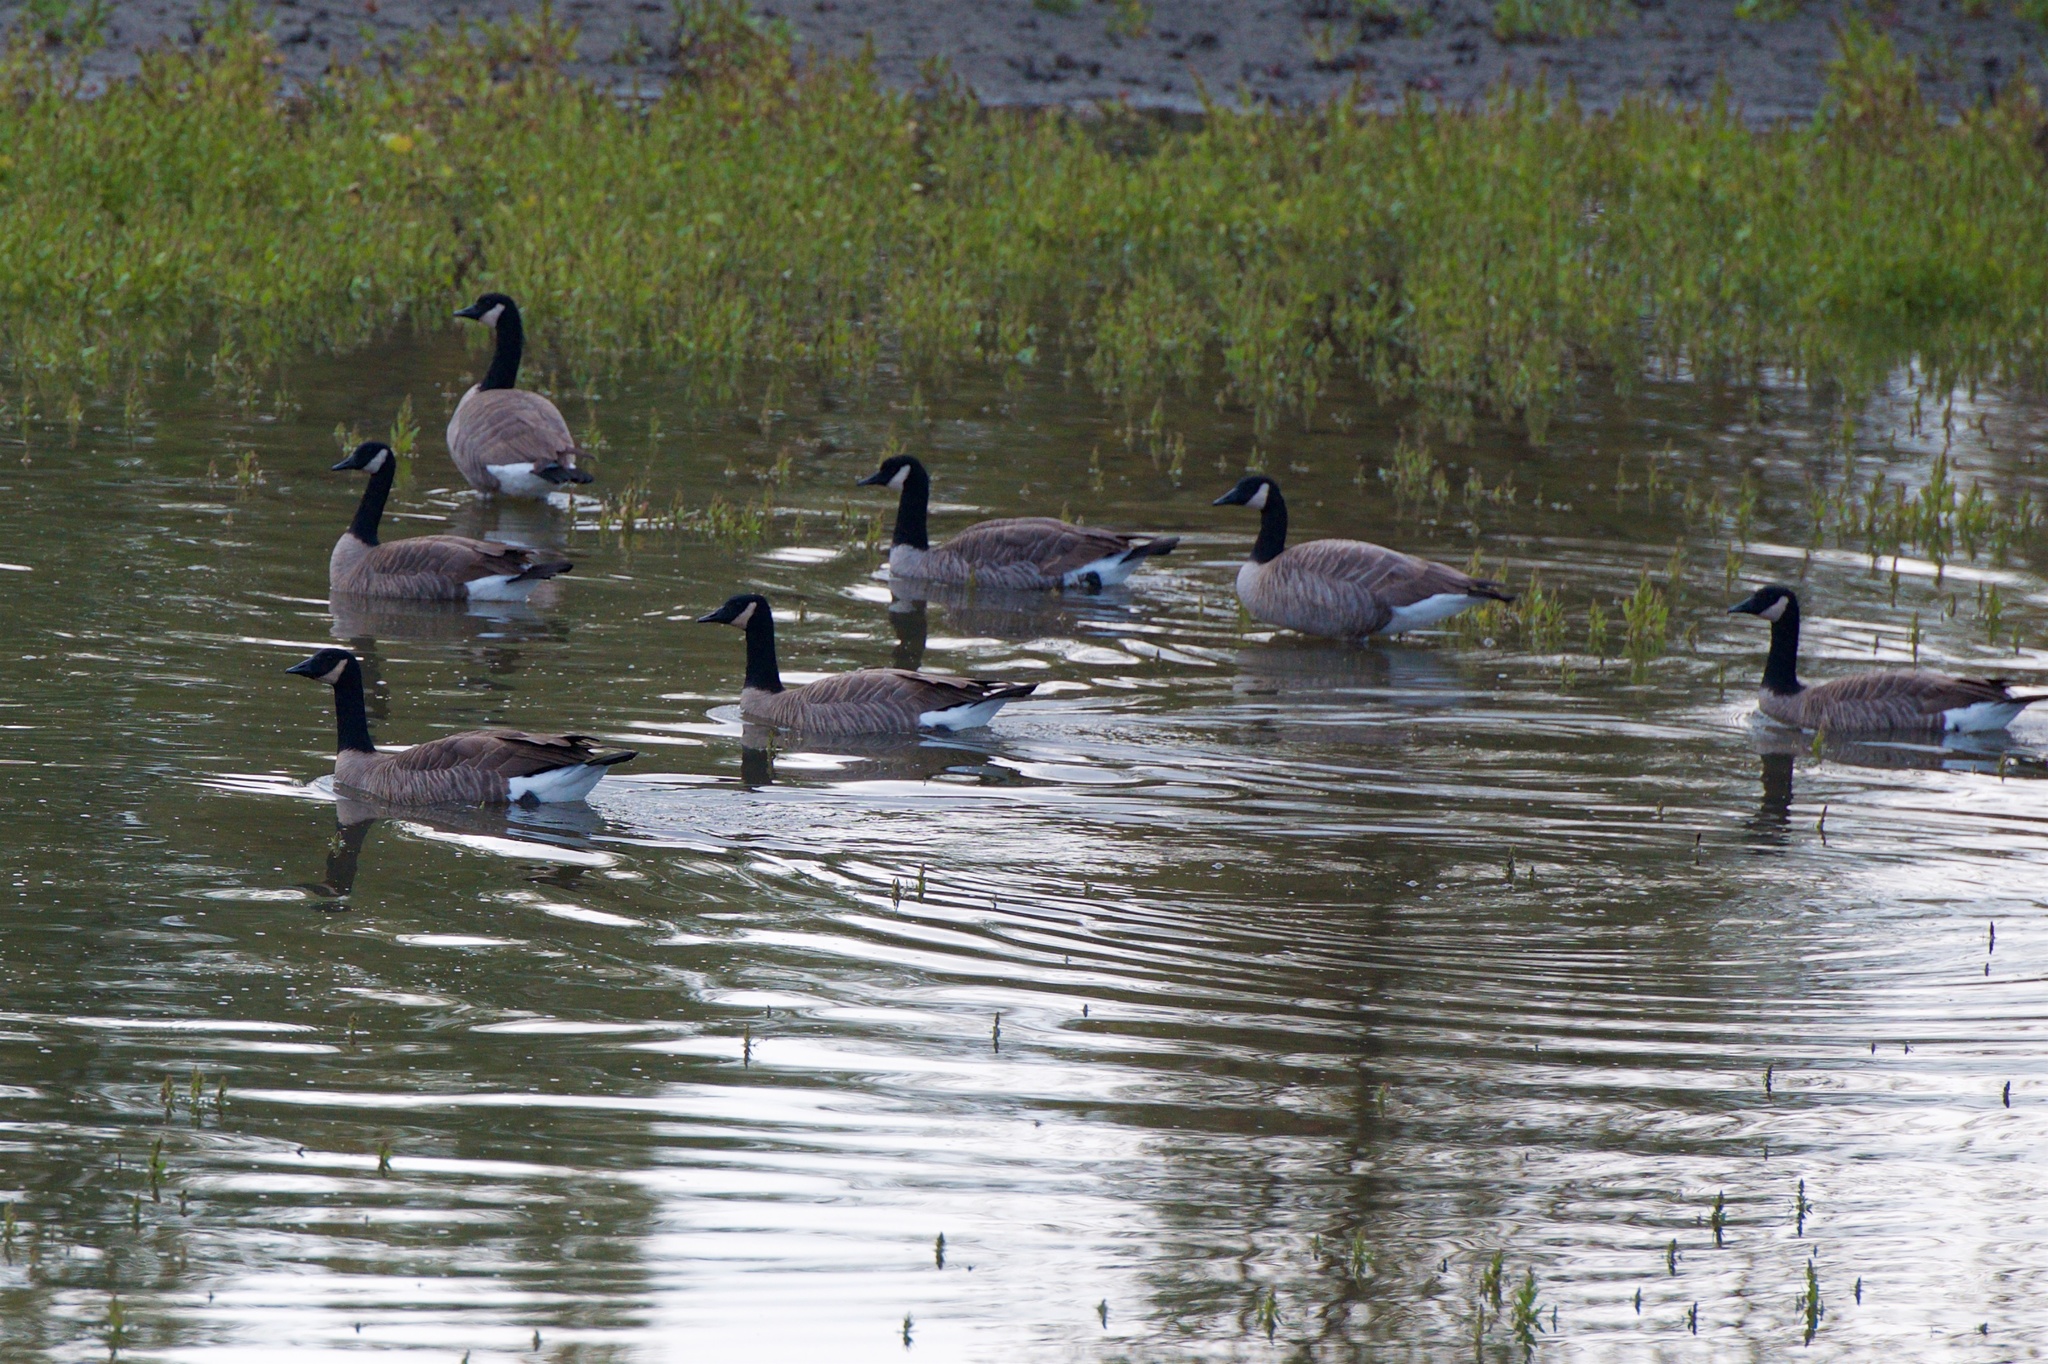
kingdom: Animalia
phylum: Chordata
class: Aves
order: Anseriformes
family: Anatidae
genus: Branta
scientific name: Branta canadensis
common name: Canada goose
